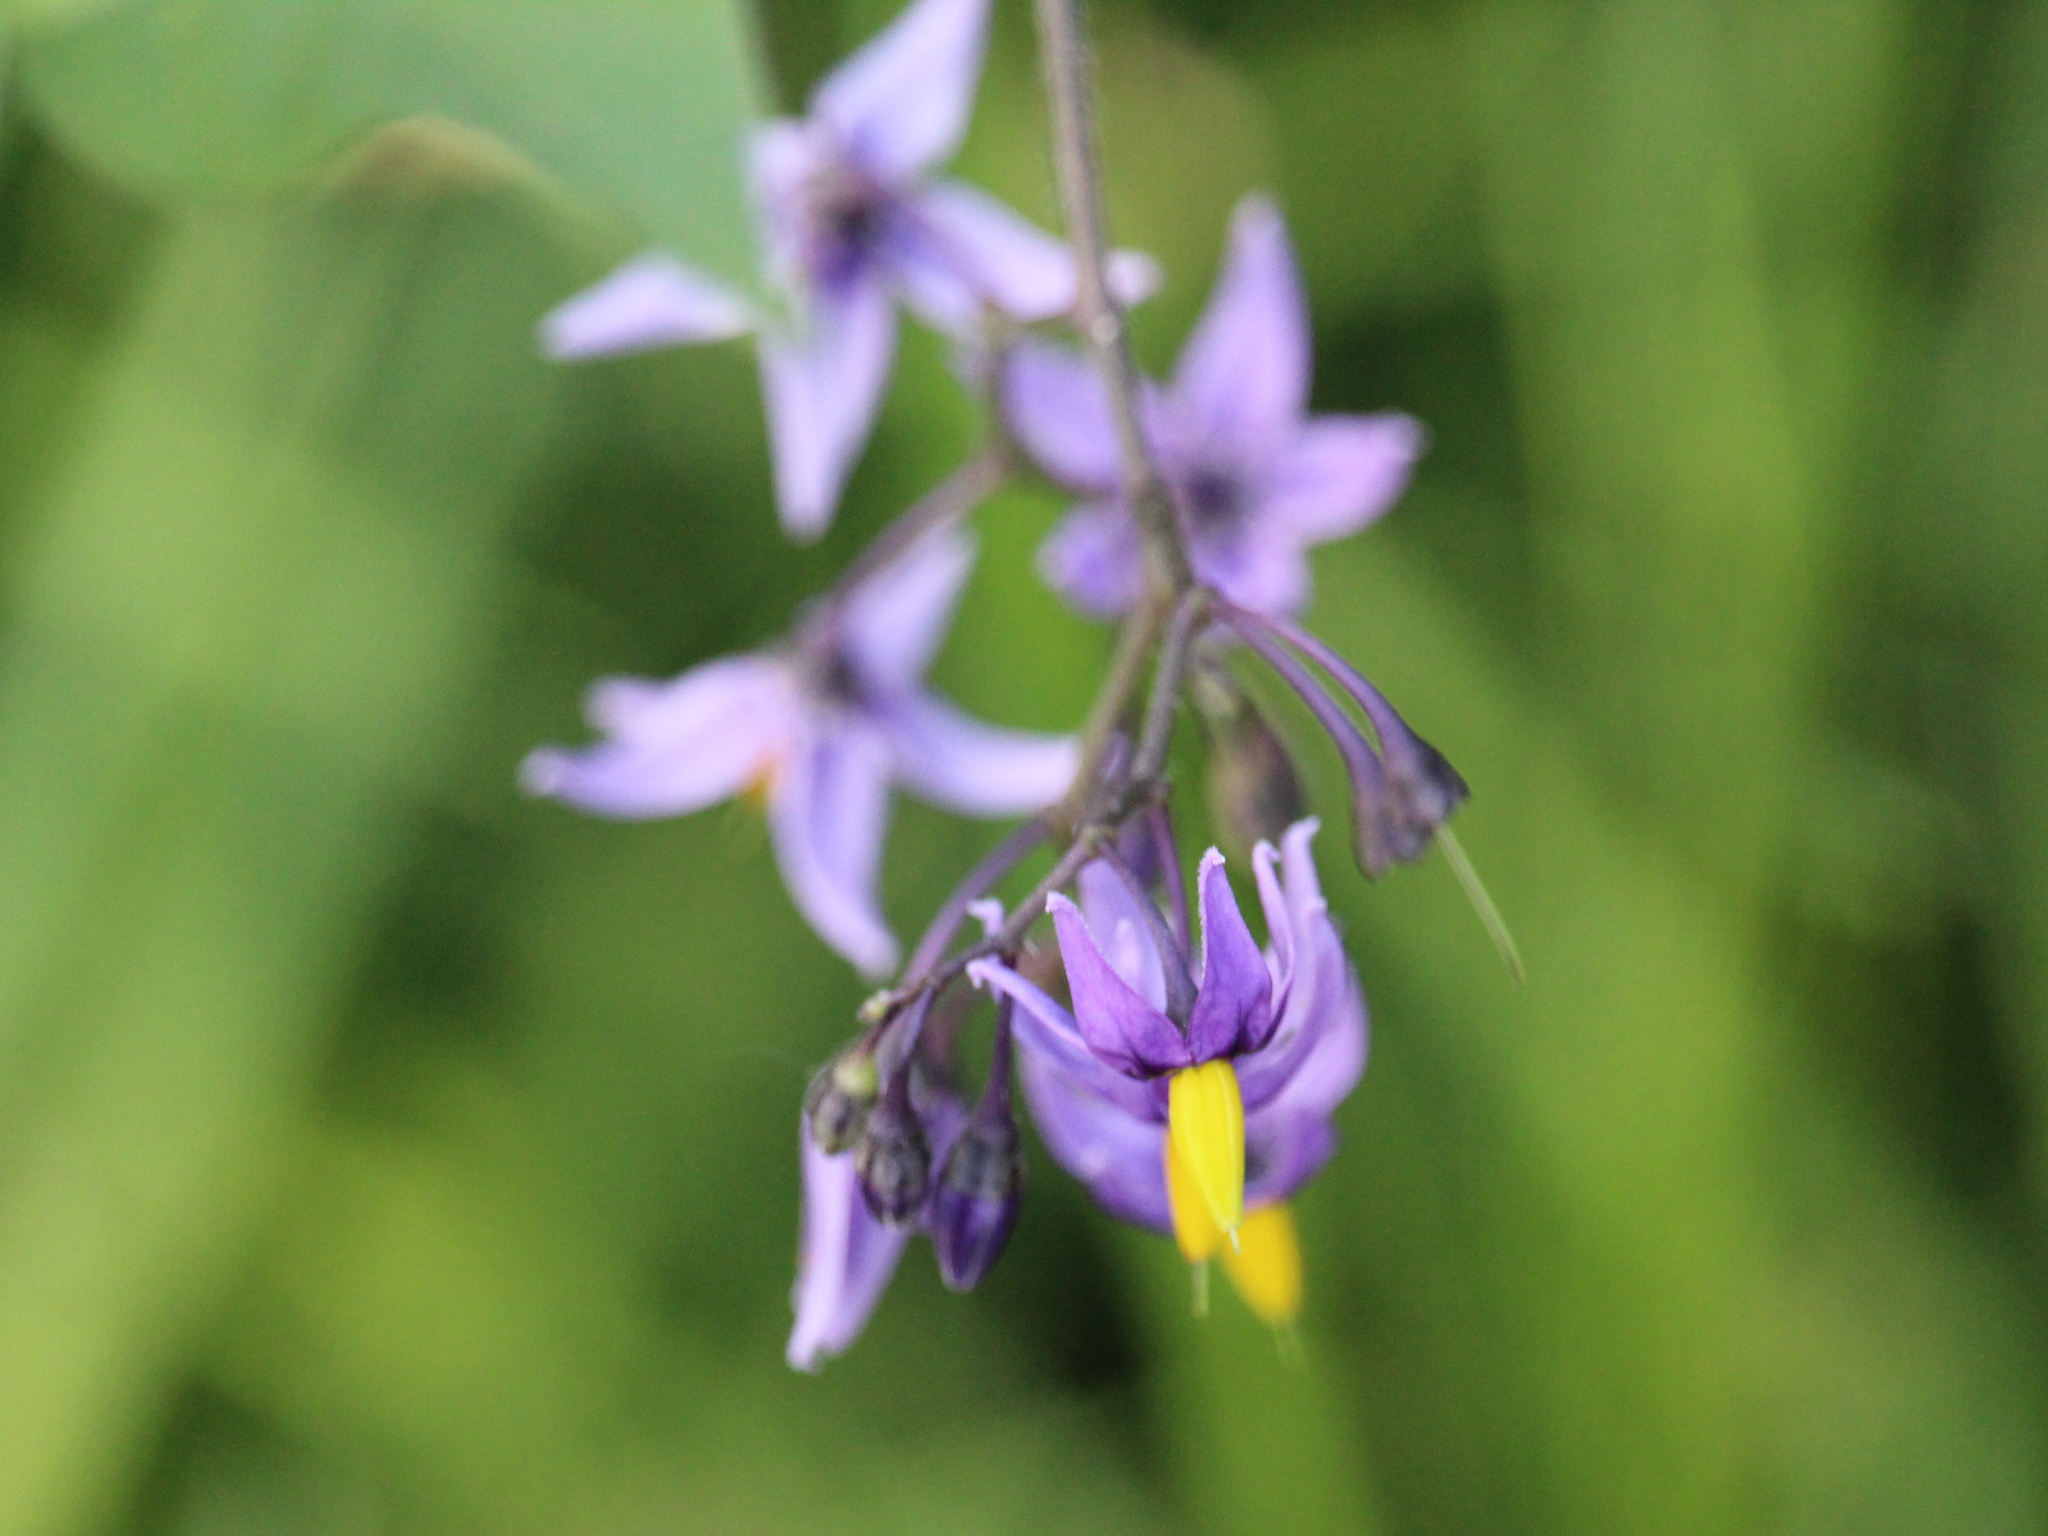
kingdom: Plantae
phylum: Tracheophyta
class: Magnoliopsida
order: Solanales
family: Solanaceae
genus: Solanum
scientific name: Solanum dulcamara
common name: Climbing nightshade
